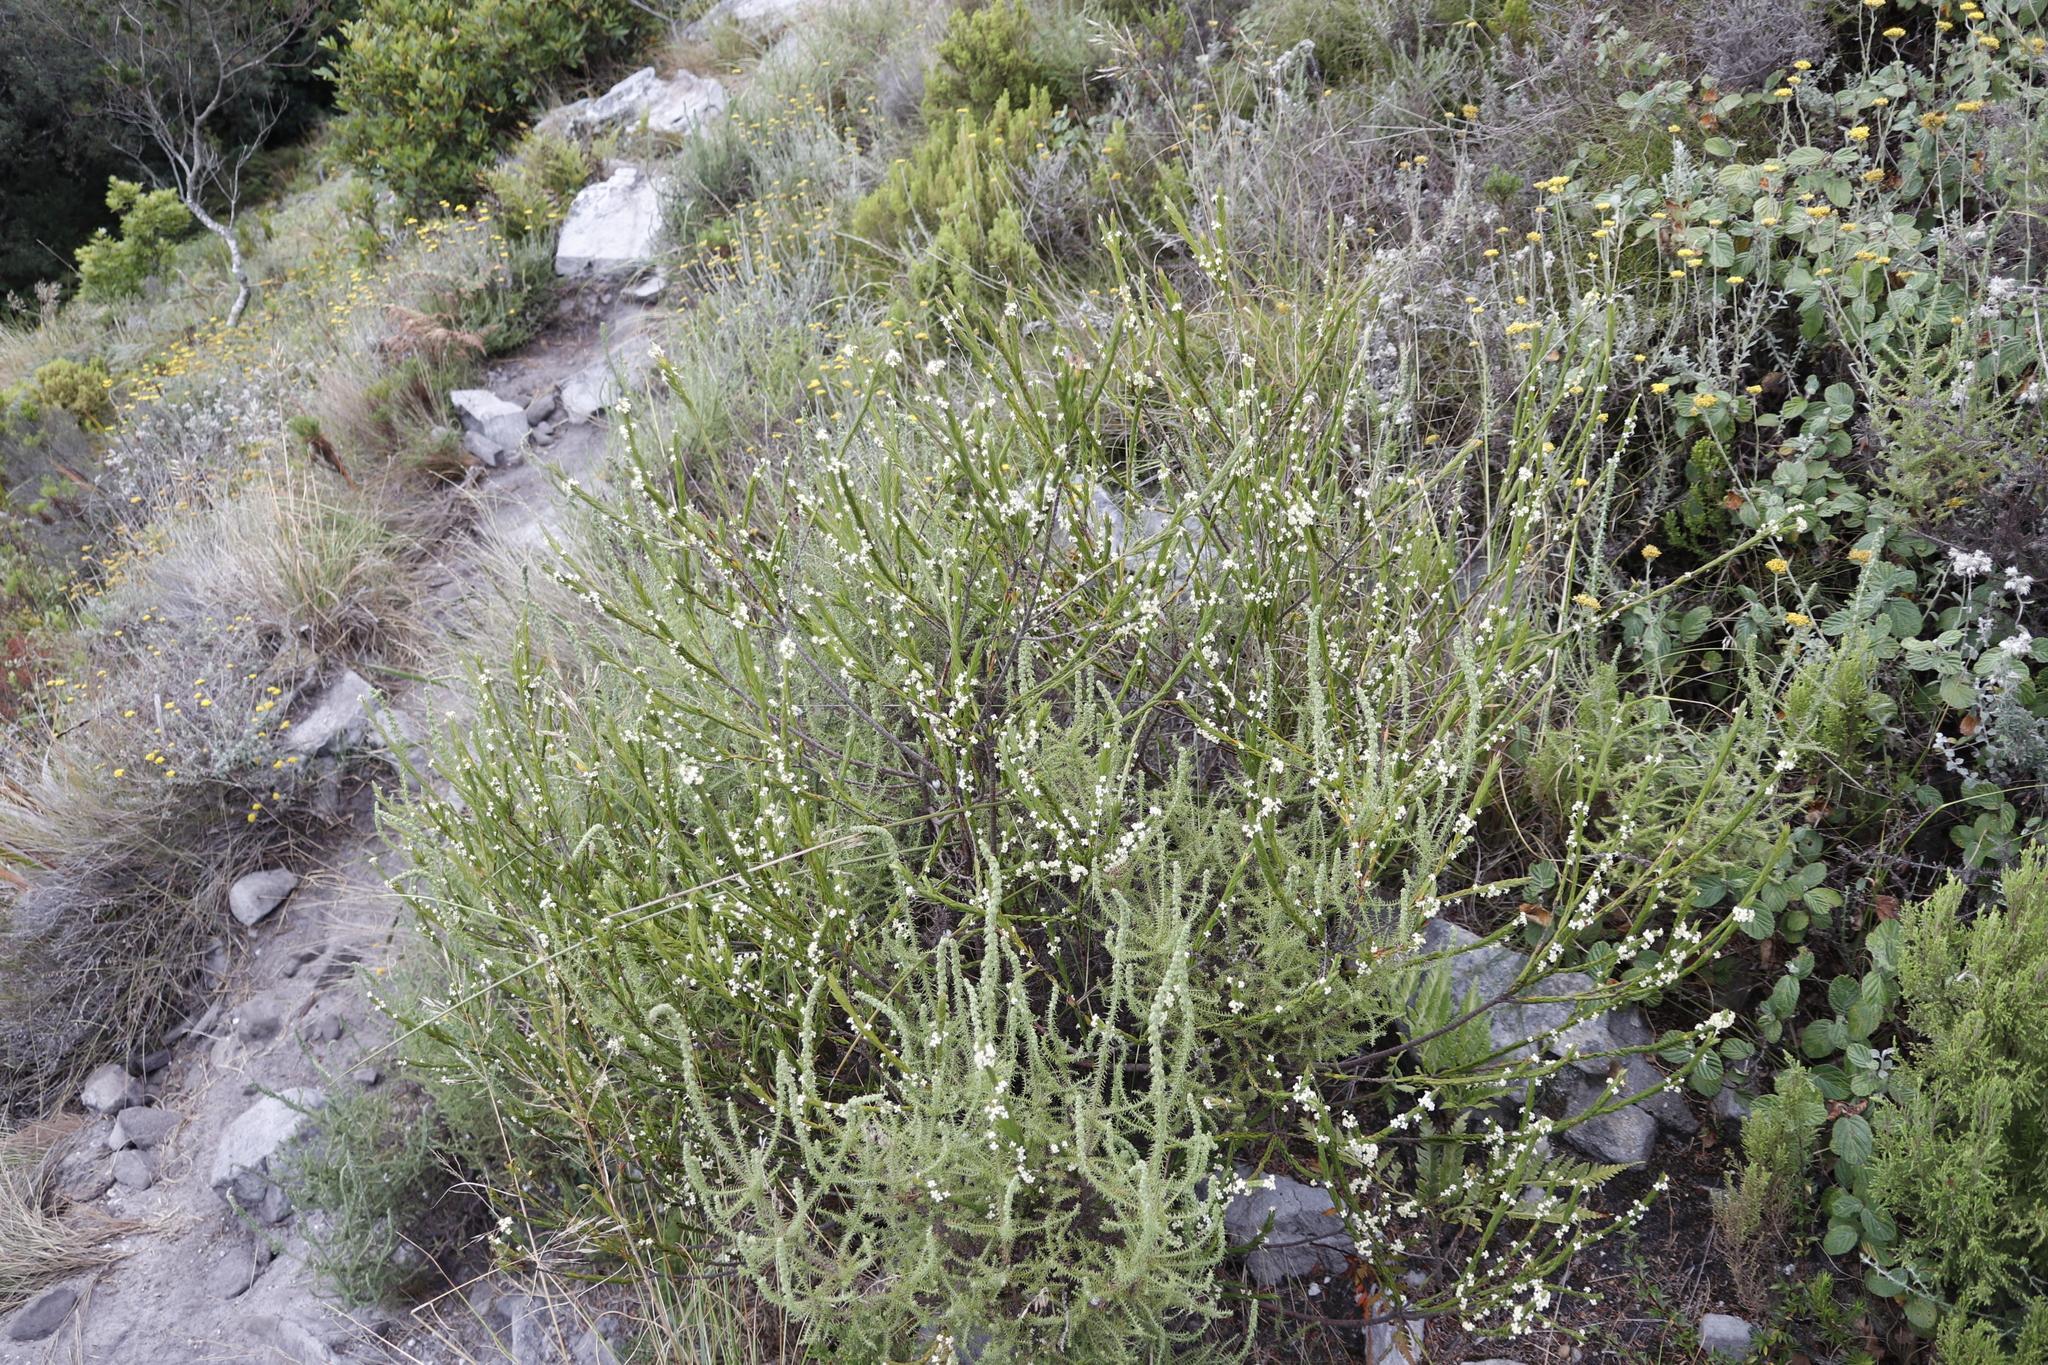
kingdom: Plantae
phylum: Tracheophyta
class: Magnoliopsida
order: Malvales
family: Thymelaeaceae
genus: Struthiola
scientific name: Struthiola ciliata
